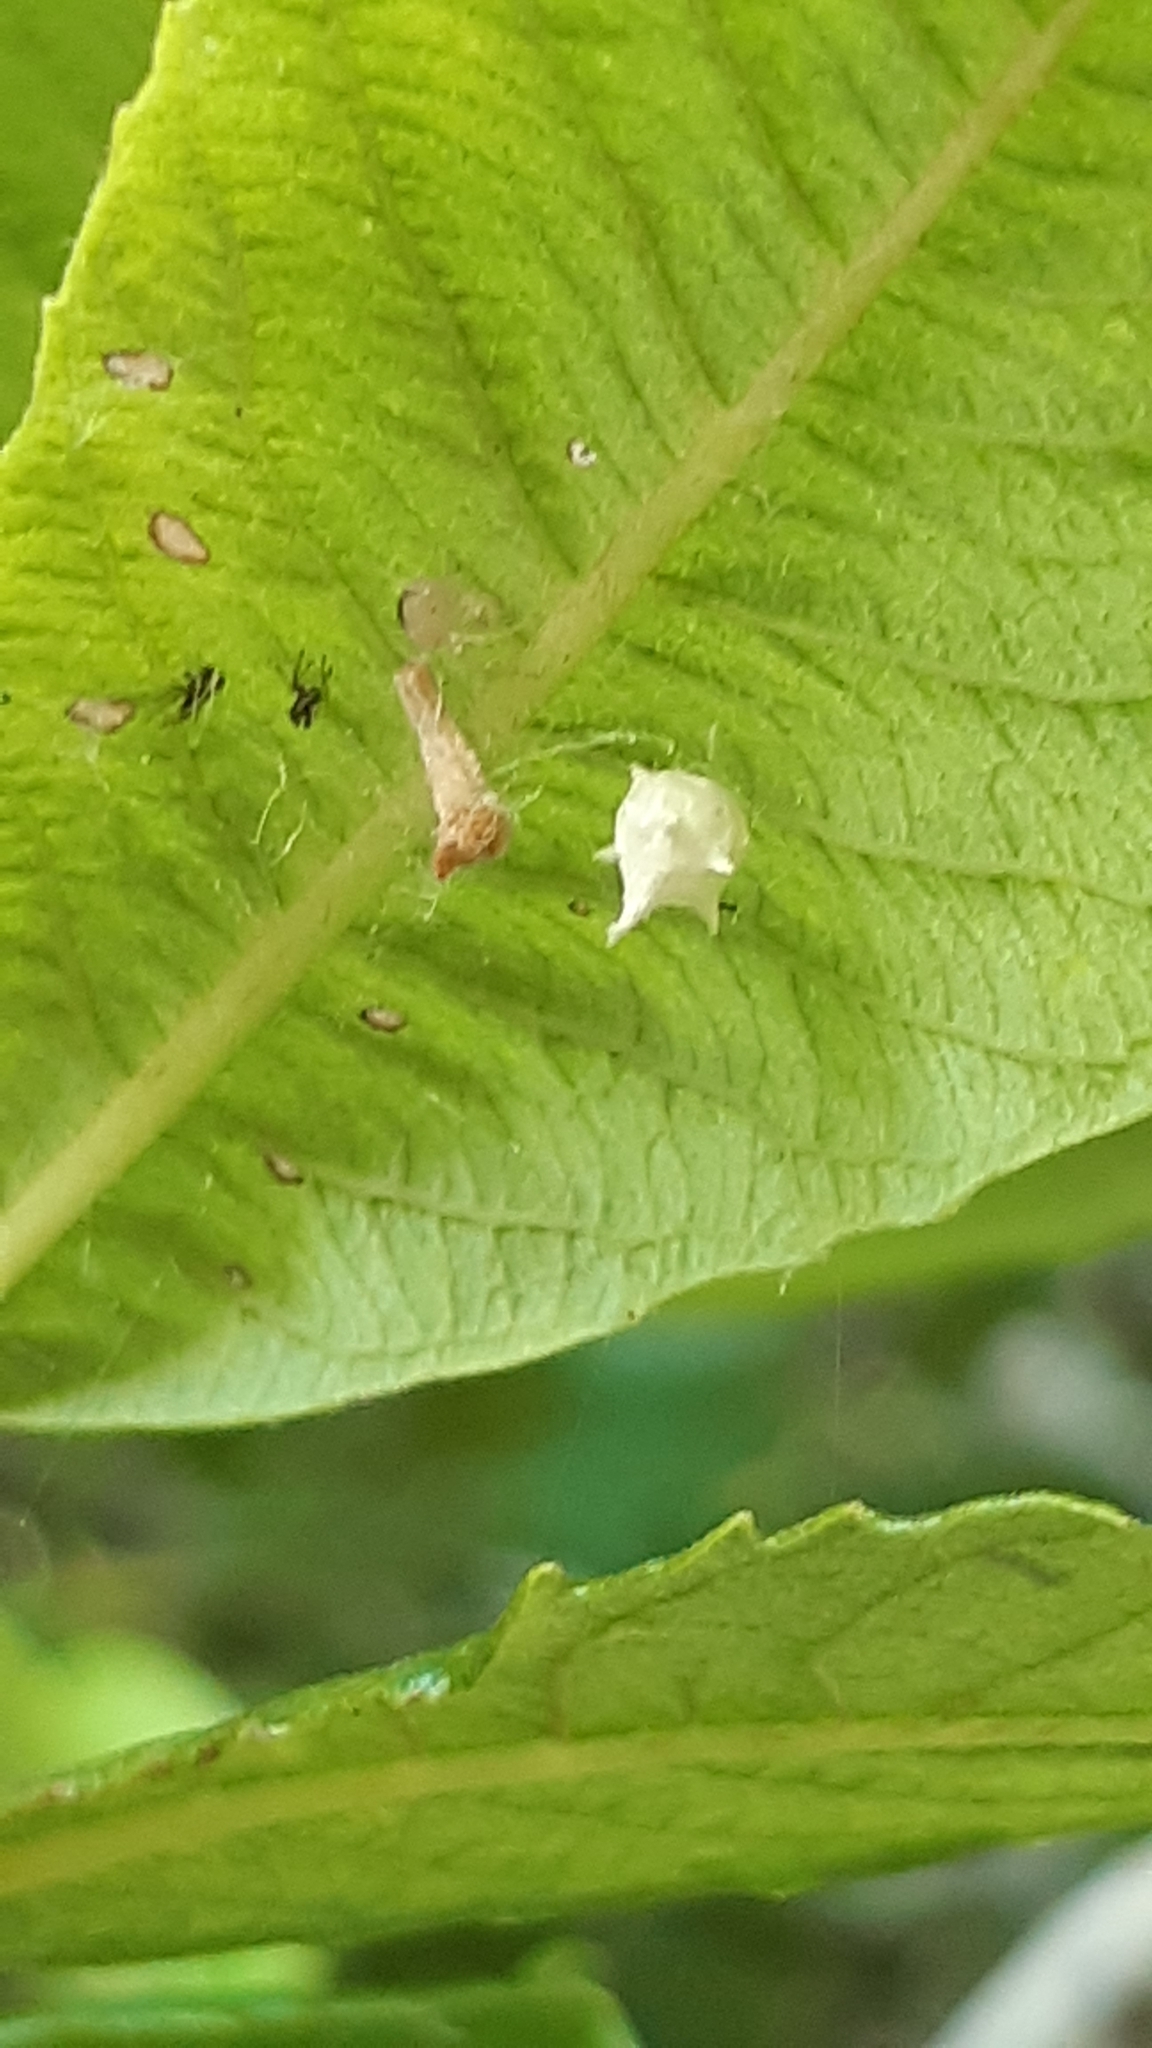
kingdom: Animalia
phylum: Arthropoda
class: Arachnida
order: Araneae
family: Theridiidae
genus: Paidiscura
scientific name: Paidiscura pallens
